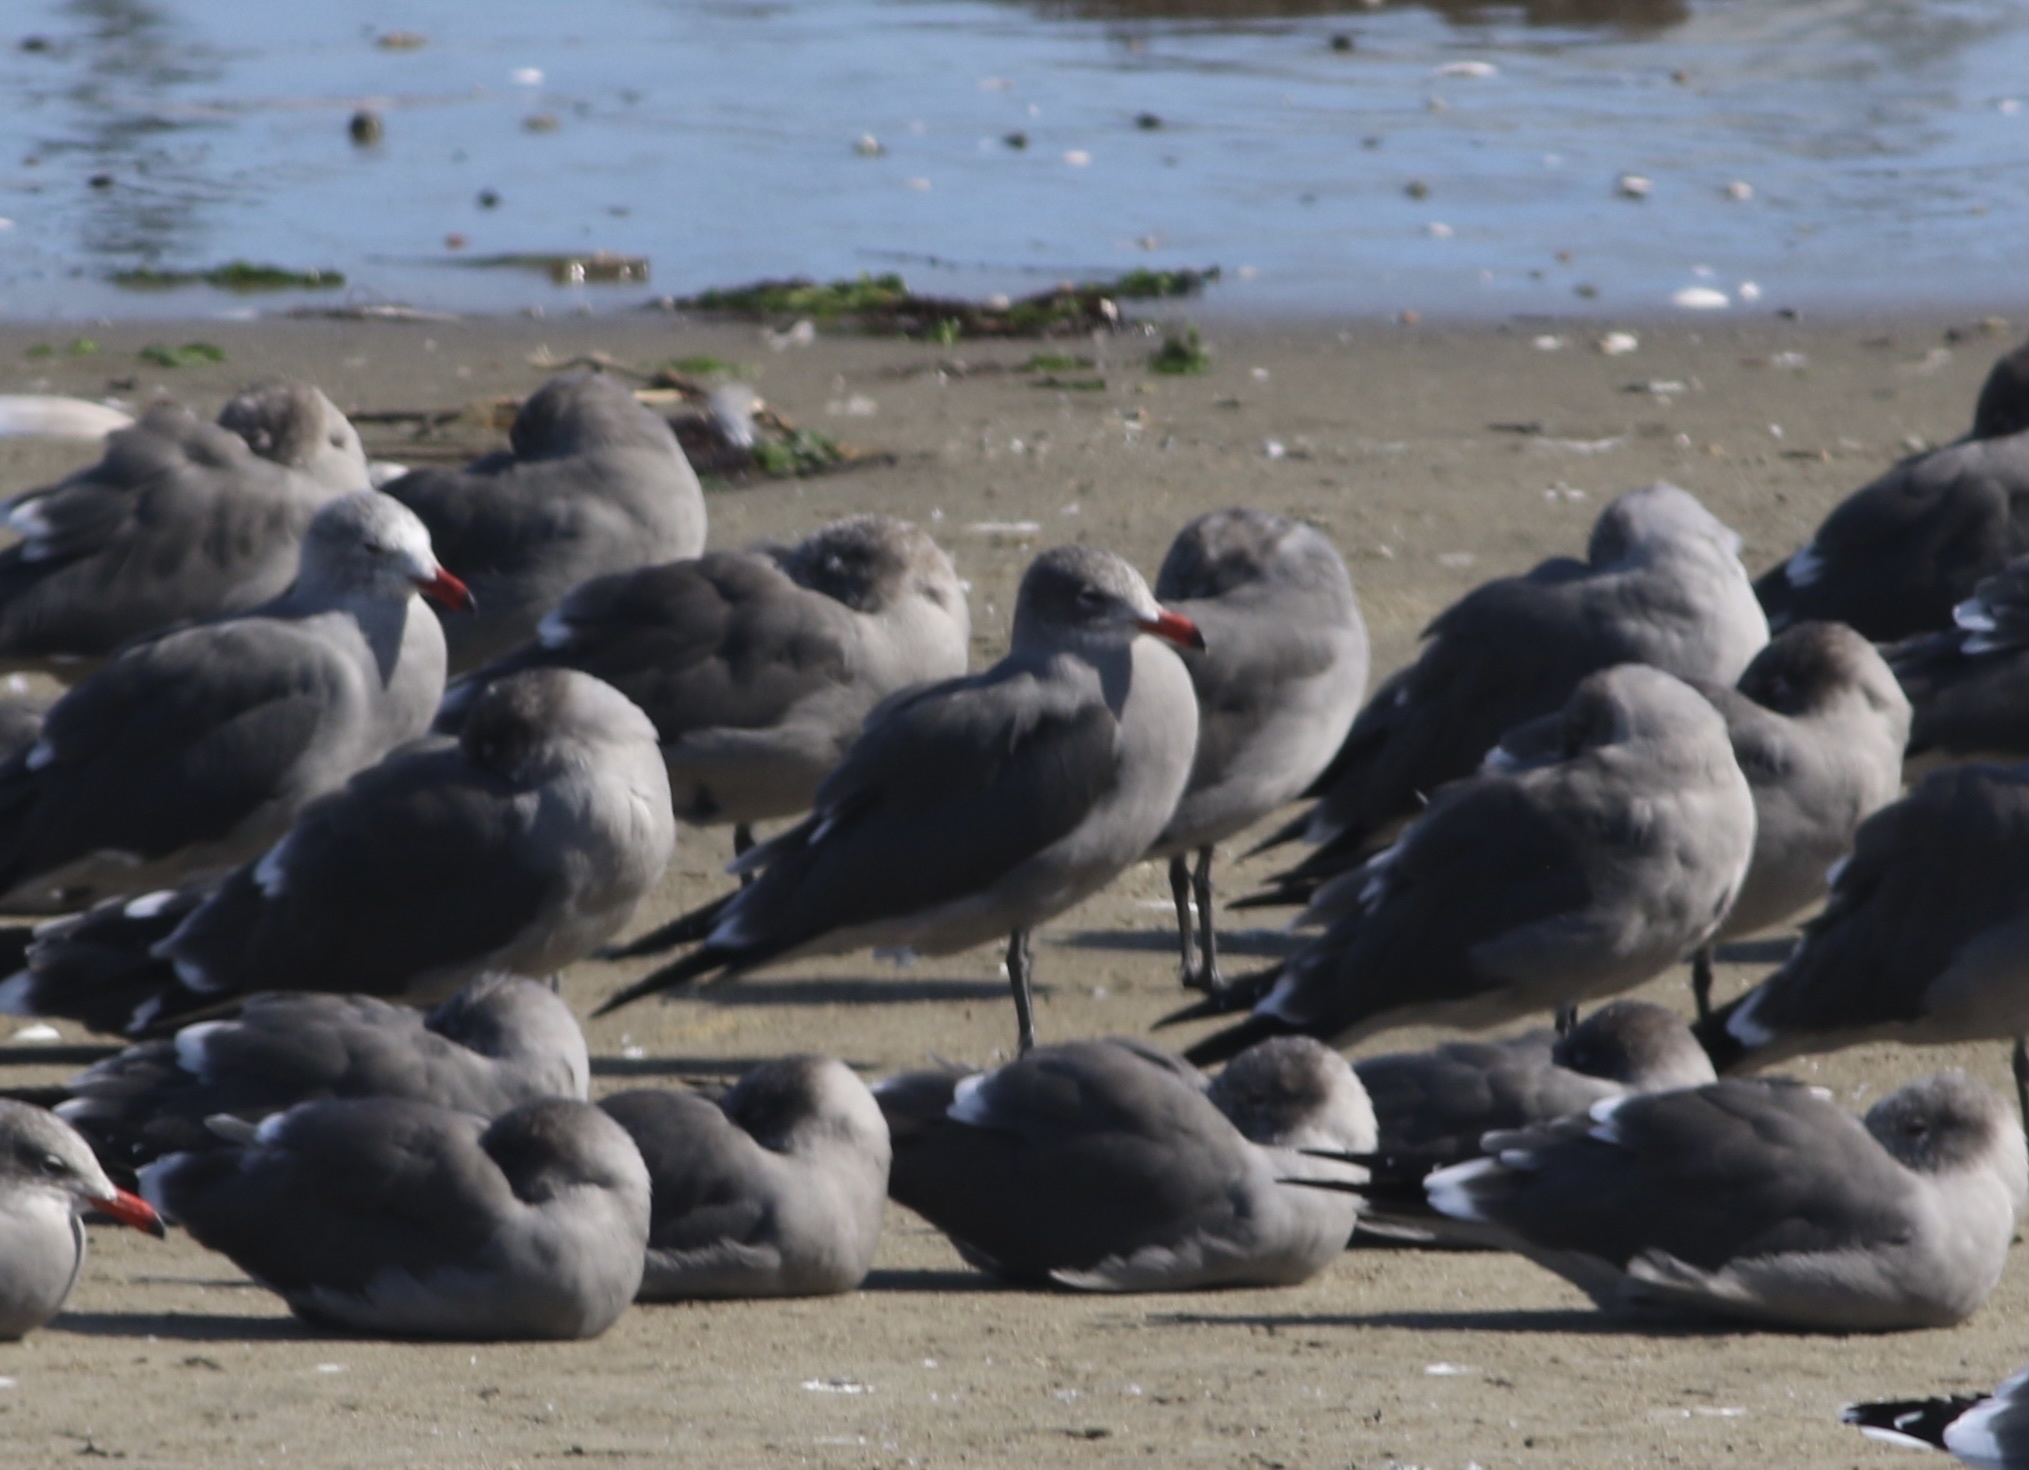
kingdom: Animalia
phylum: Chordata
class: Aves
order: Charadriiformes
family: Laridae
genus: Larus
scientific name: Larus heermanni
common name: Heermann's gull
